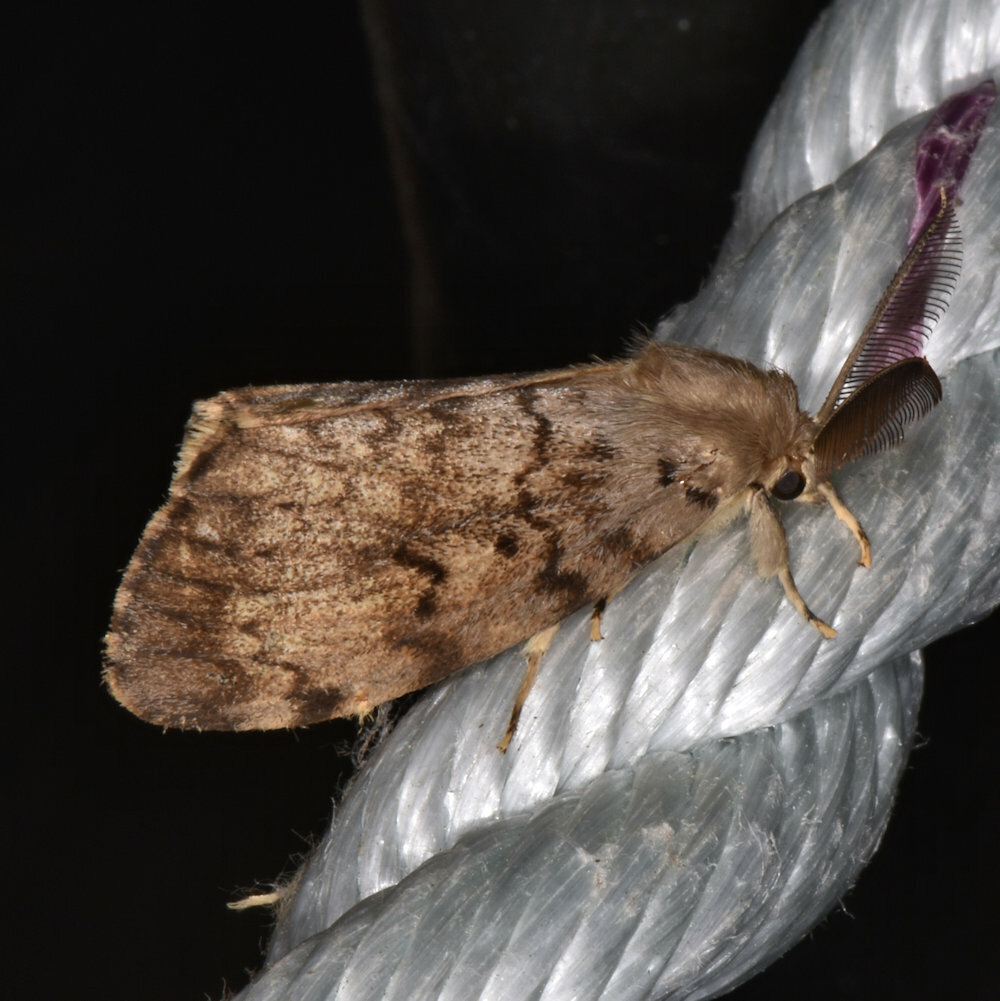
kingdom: Animalia
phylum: Arthropoda
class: Insecta
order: Lepidoptera
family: Erebidae
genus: Lymantria
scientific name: Lymantria dispar
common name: Gypsy moth
